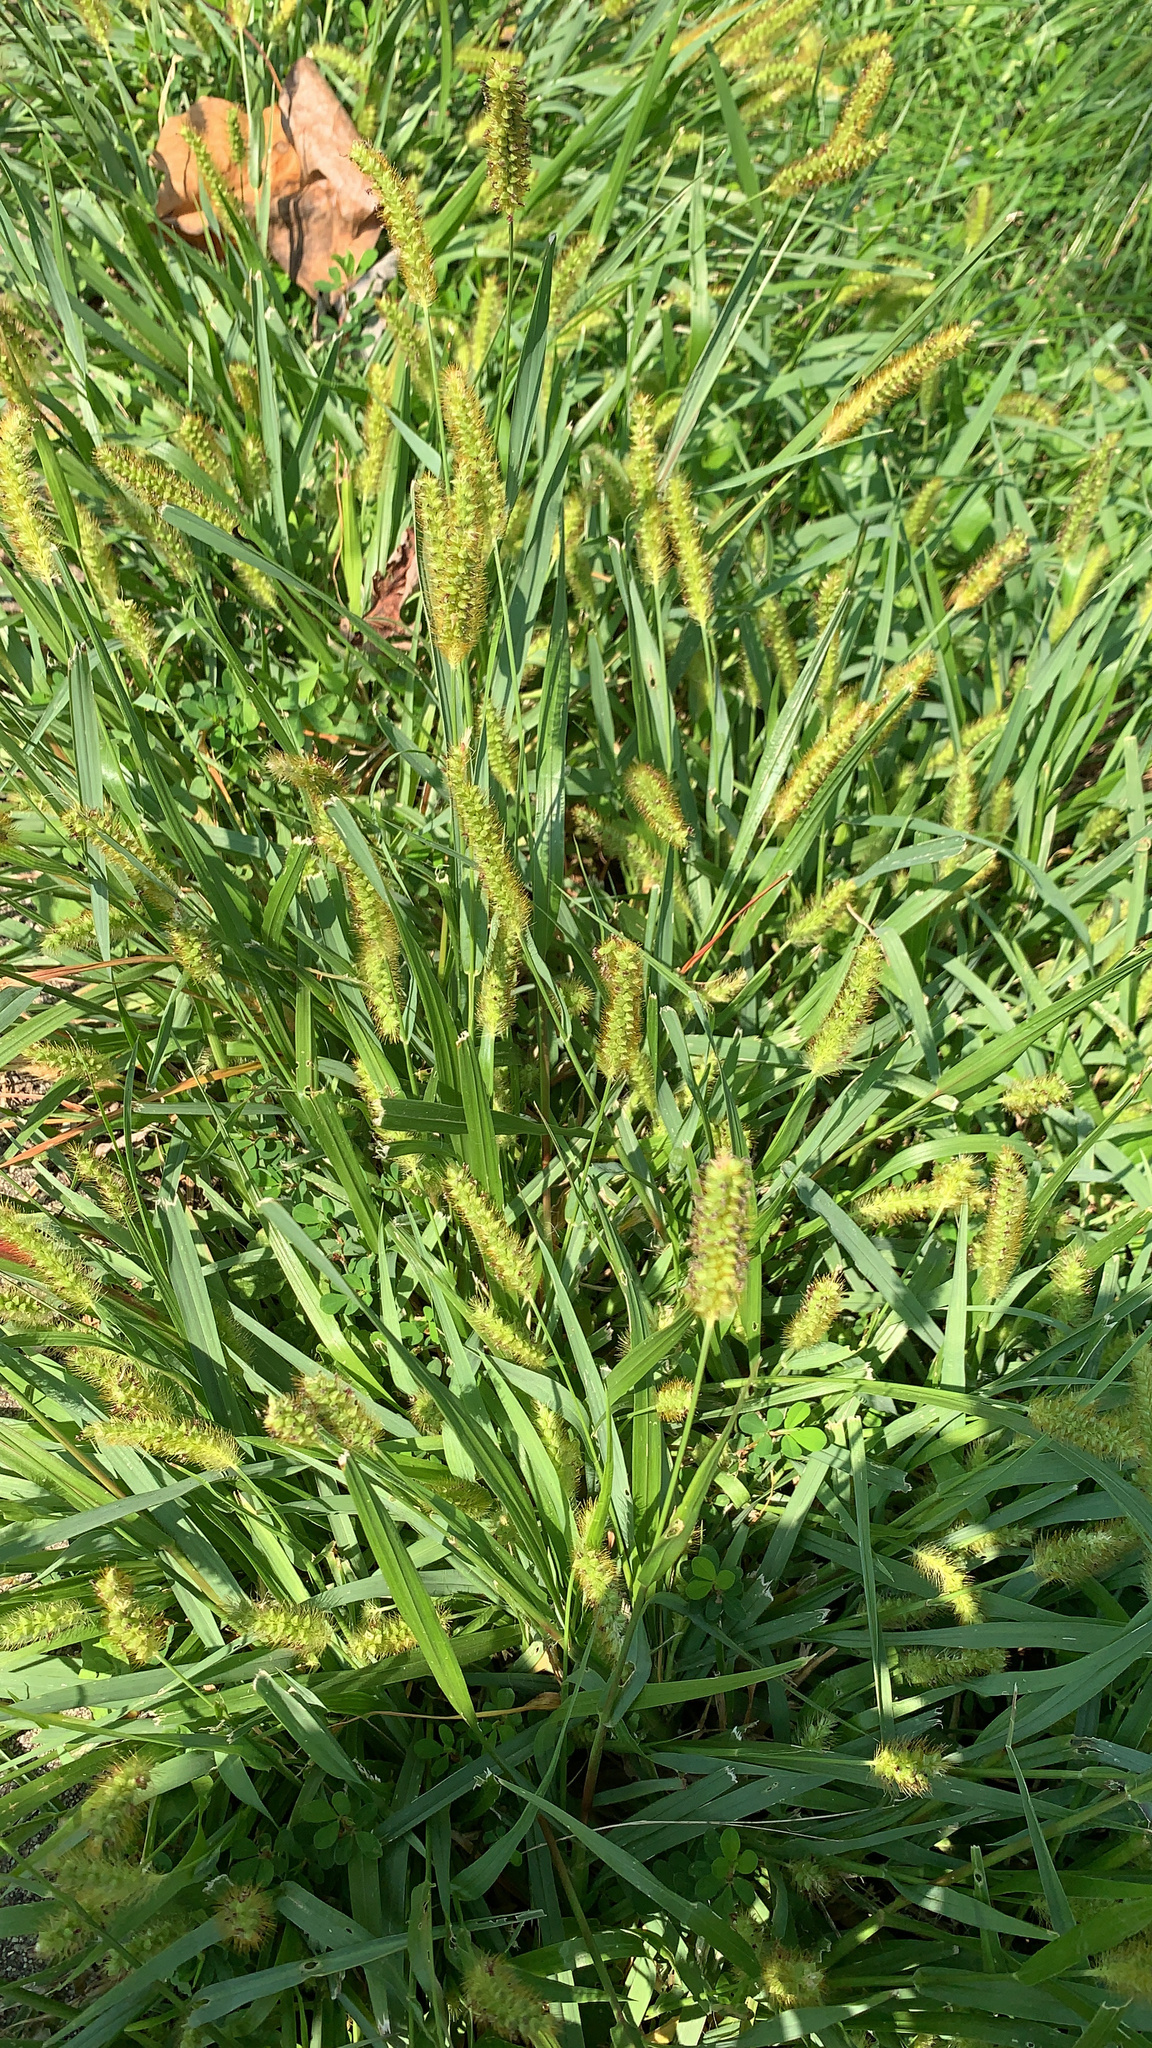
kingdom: Plantae
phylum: Tracheophyta
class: Liliopsida
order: Poales
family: Poaceae
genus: Setaria
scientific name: Setaria pumila
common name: Yellow bristle-grass
